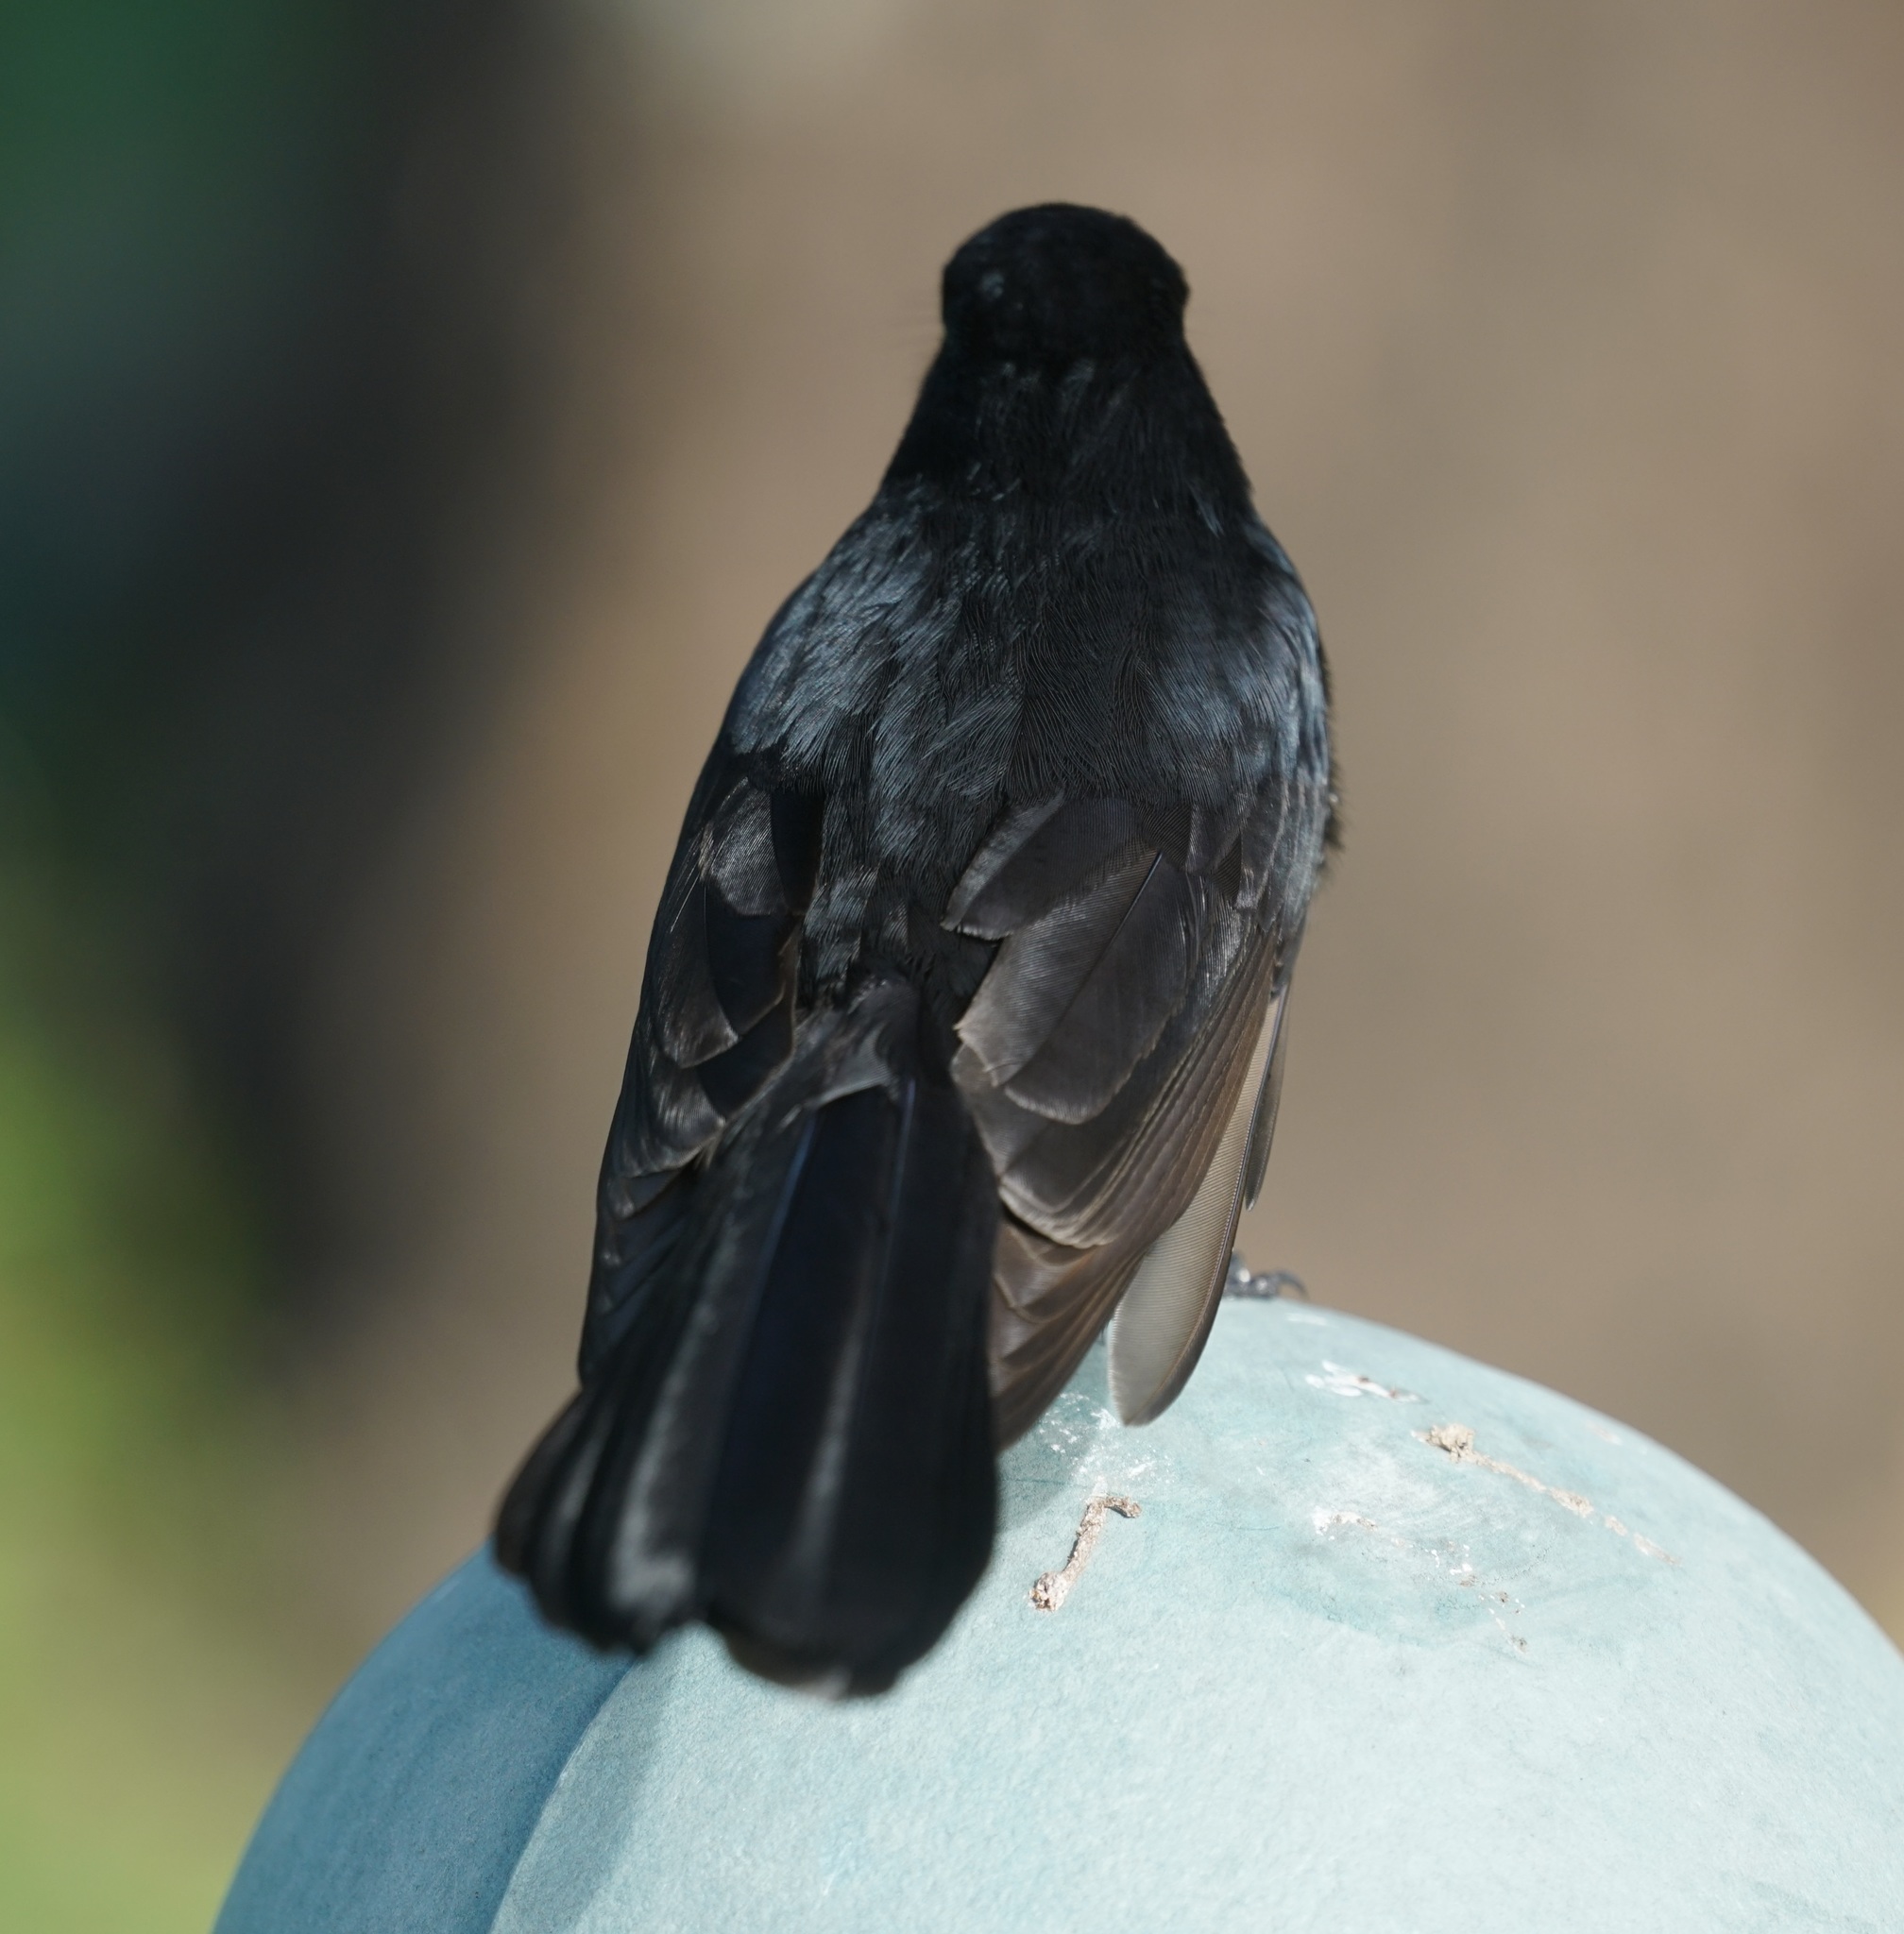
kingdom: Animalia
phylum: Chordata
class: Aves
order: Passeriformes
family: Rhipiduridae
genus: Rhipidura
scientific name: Rhipidura leucophrys
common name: Willie wagtail
